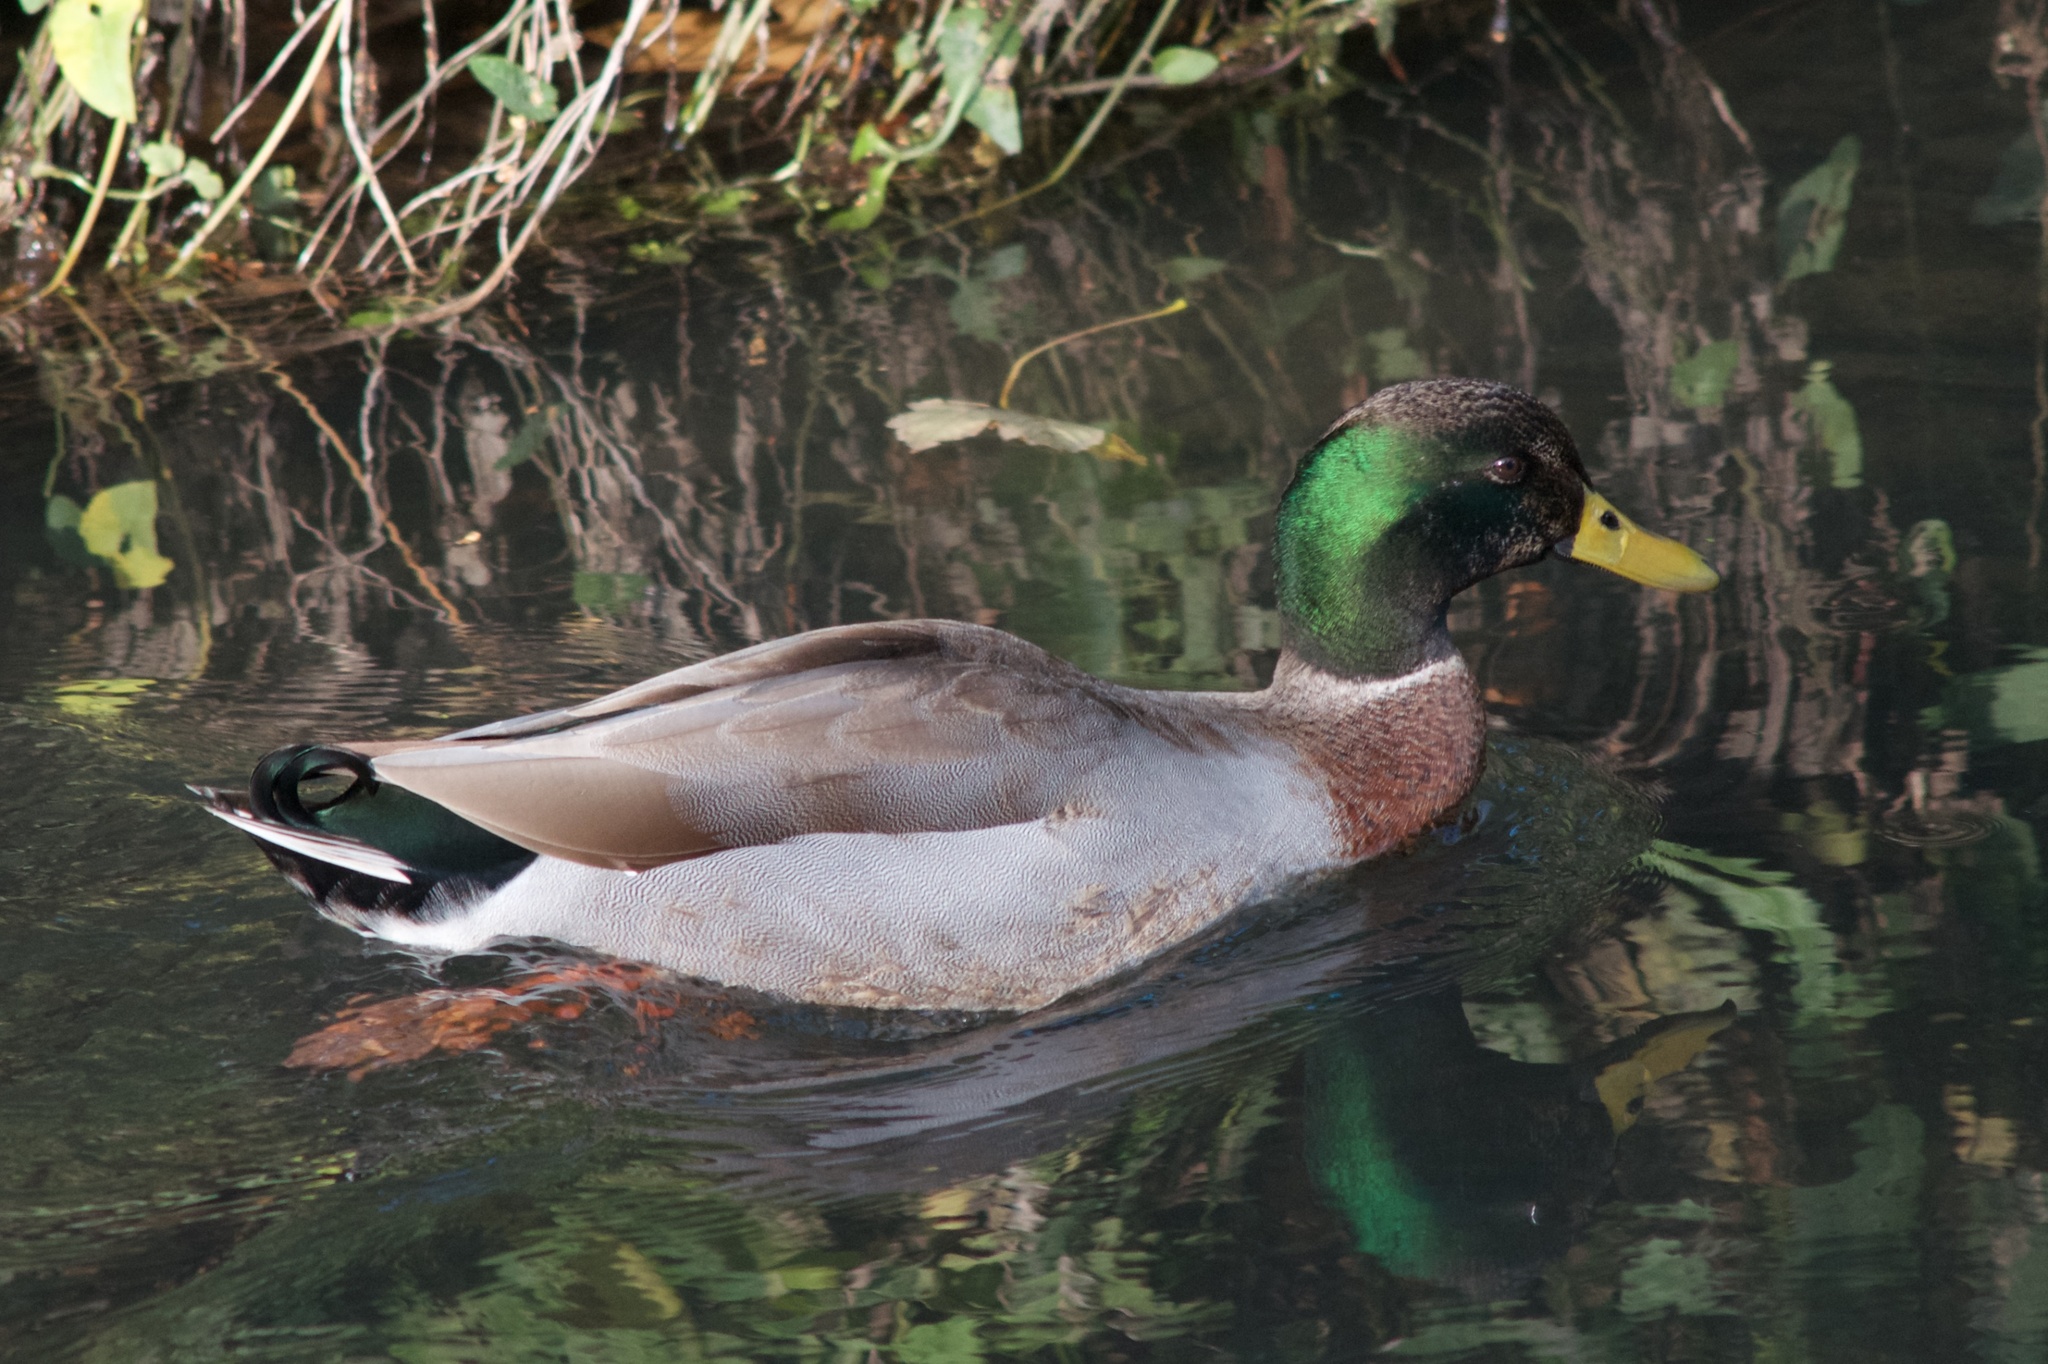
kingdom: Animalia
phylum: Chordata
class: Aves
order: Anseriformes
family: Anatidae
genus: Anas
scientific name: Anas platyrhynchos
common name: Mallard
